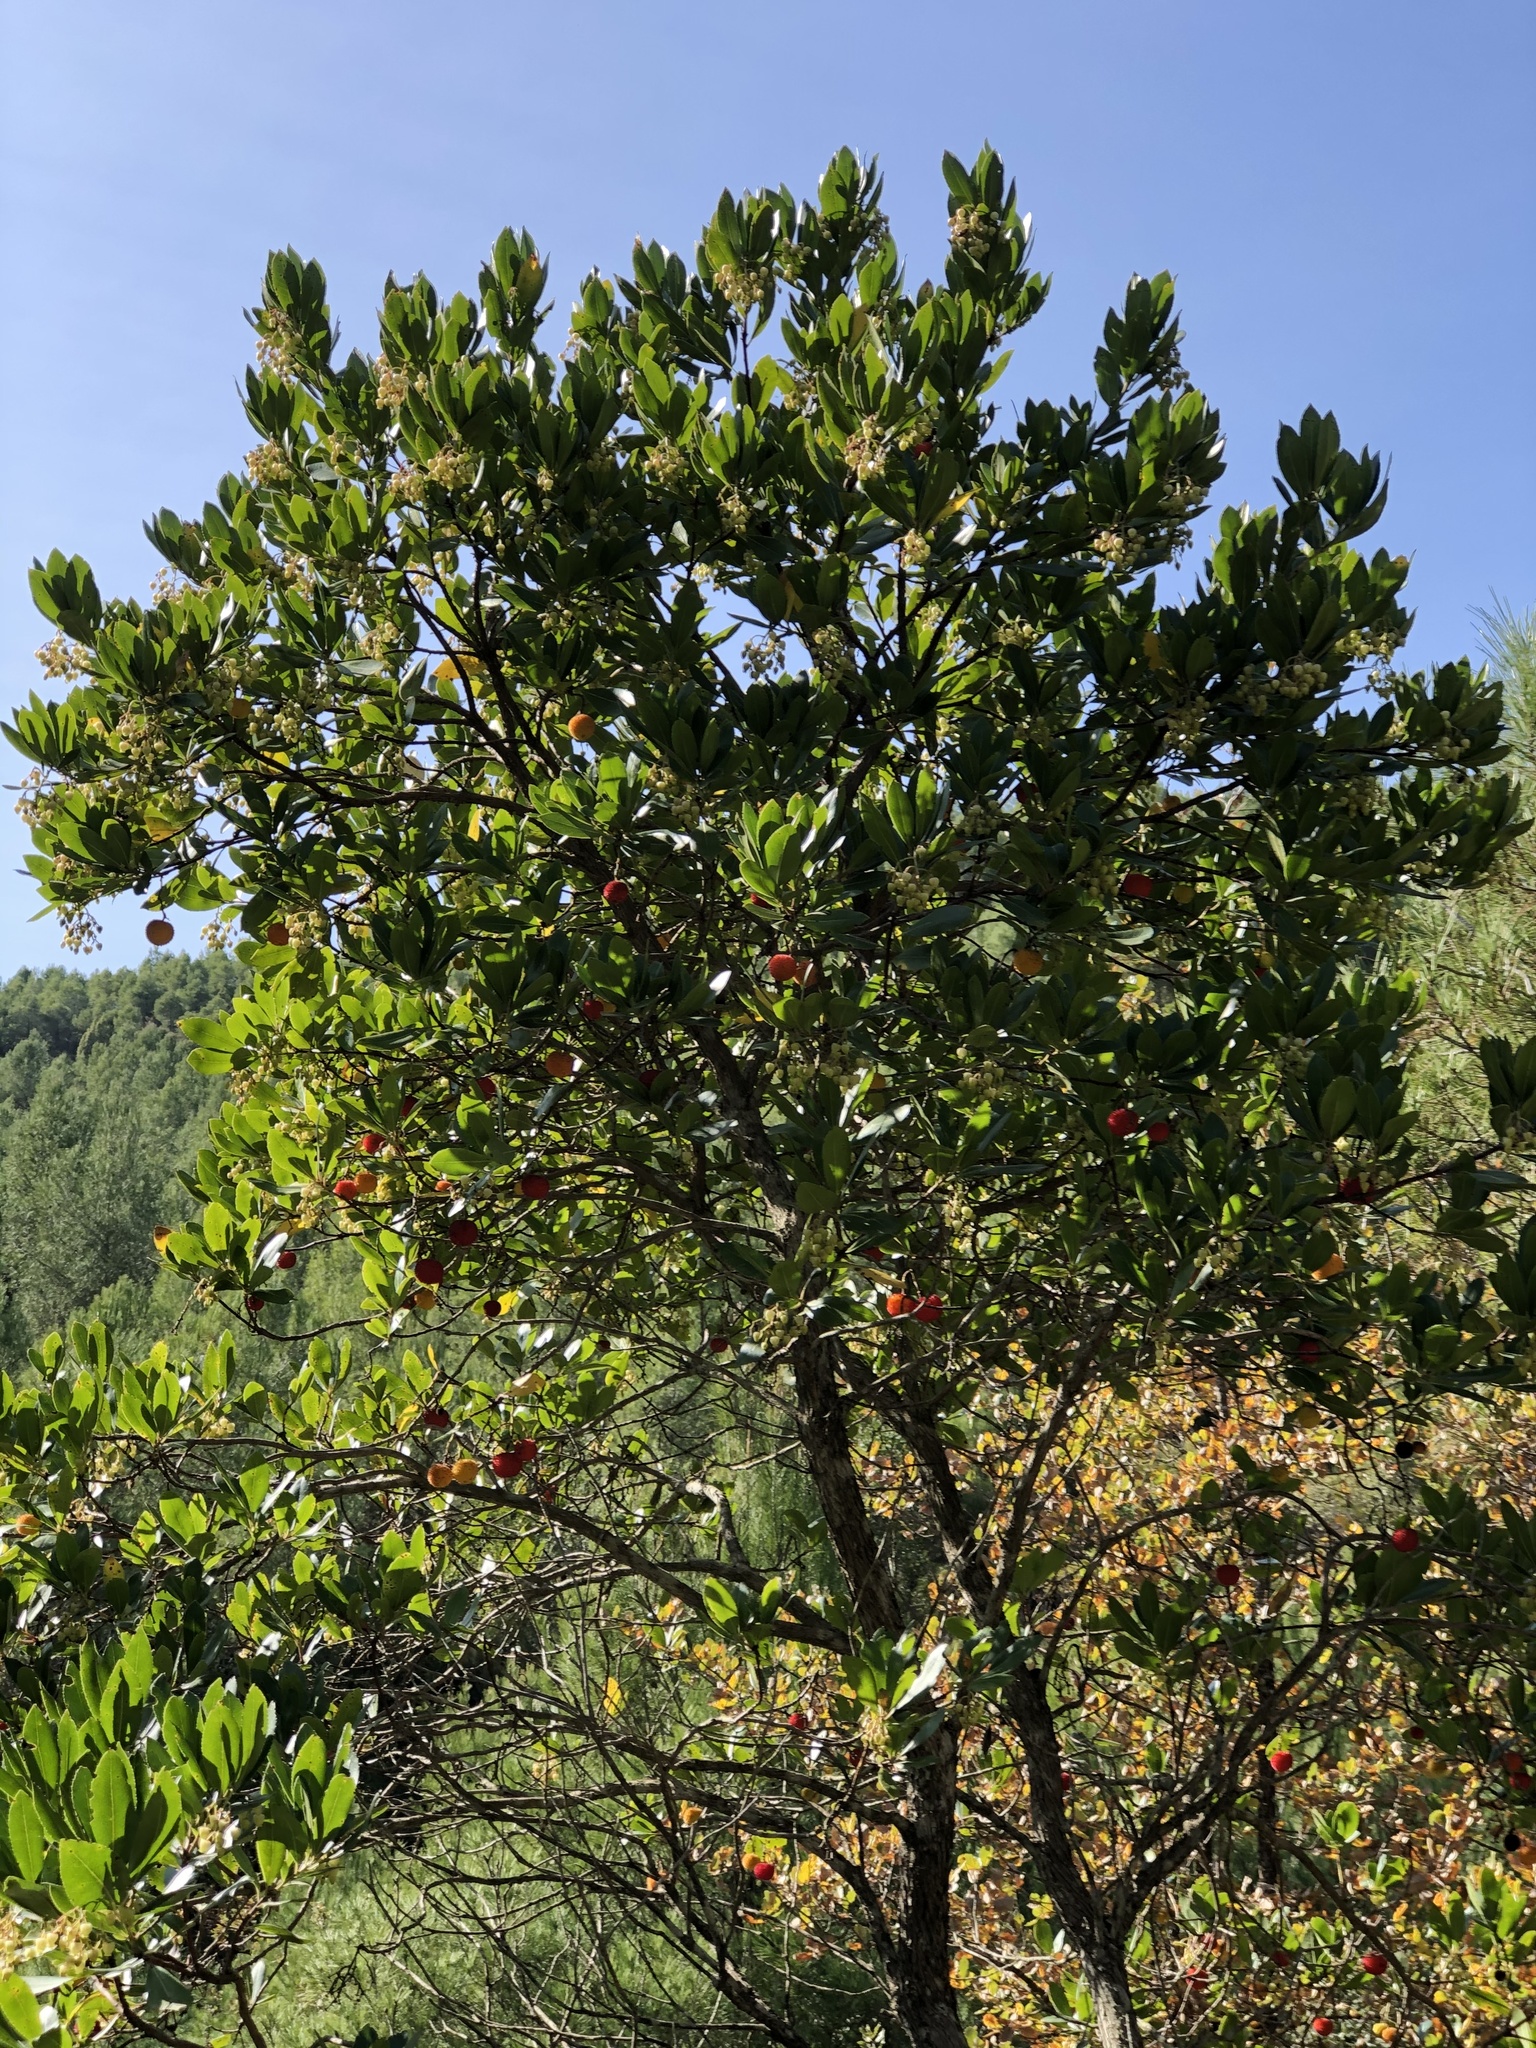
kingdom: Plantae
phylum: Tracheophyta
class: Magnoliopsida
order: Ericales
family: Ericaceae
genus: Arbutus
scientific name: Arbutus unedo
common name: Strawberry-tree
